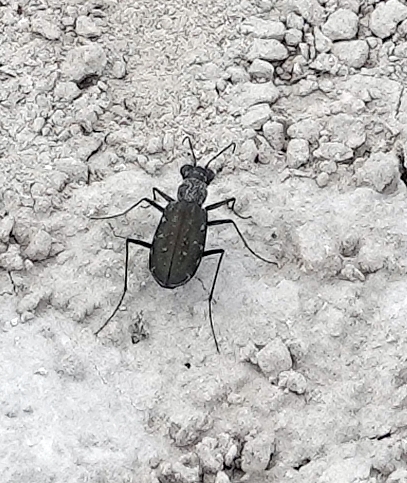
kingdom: Animalia
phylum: Arthropoda
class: Insecta
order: Coleoptera
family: Carabidae
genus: Cicindela
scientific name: Cicindela punctulata
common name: Punctured tiger beetle
